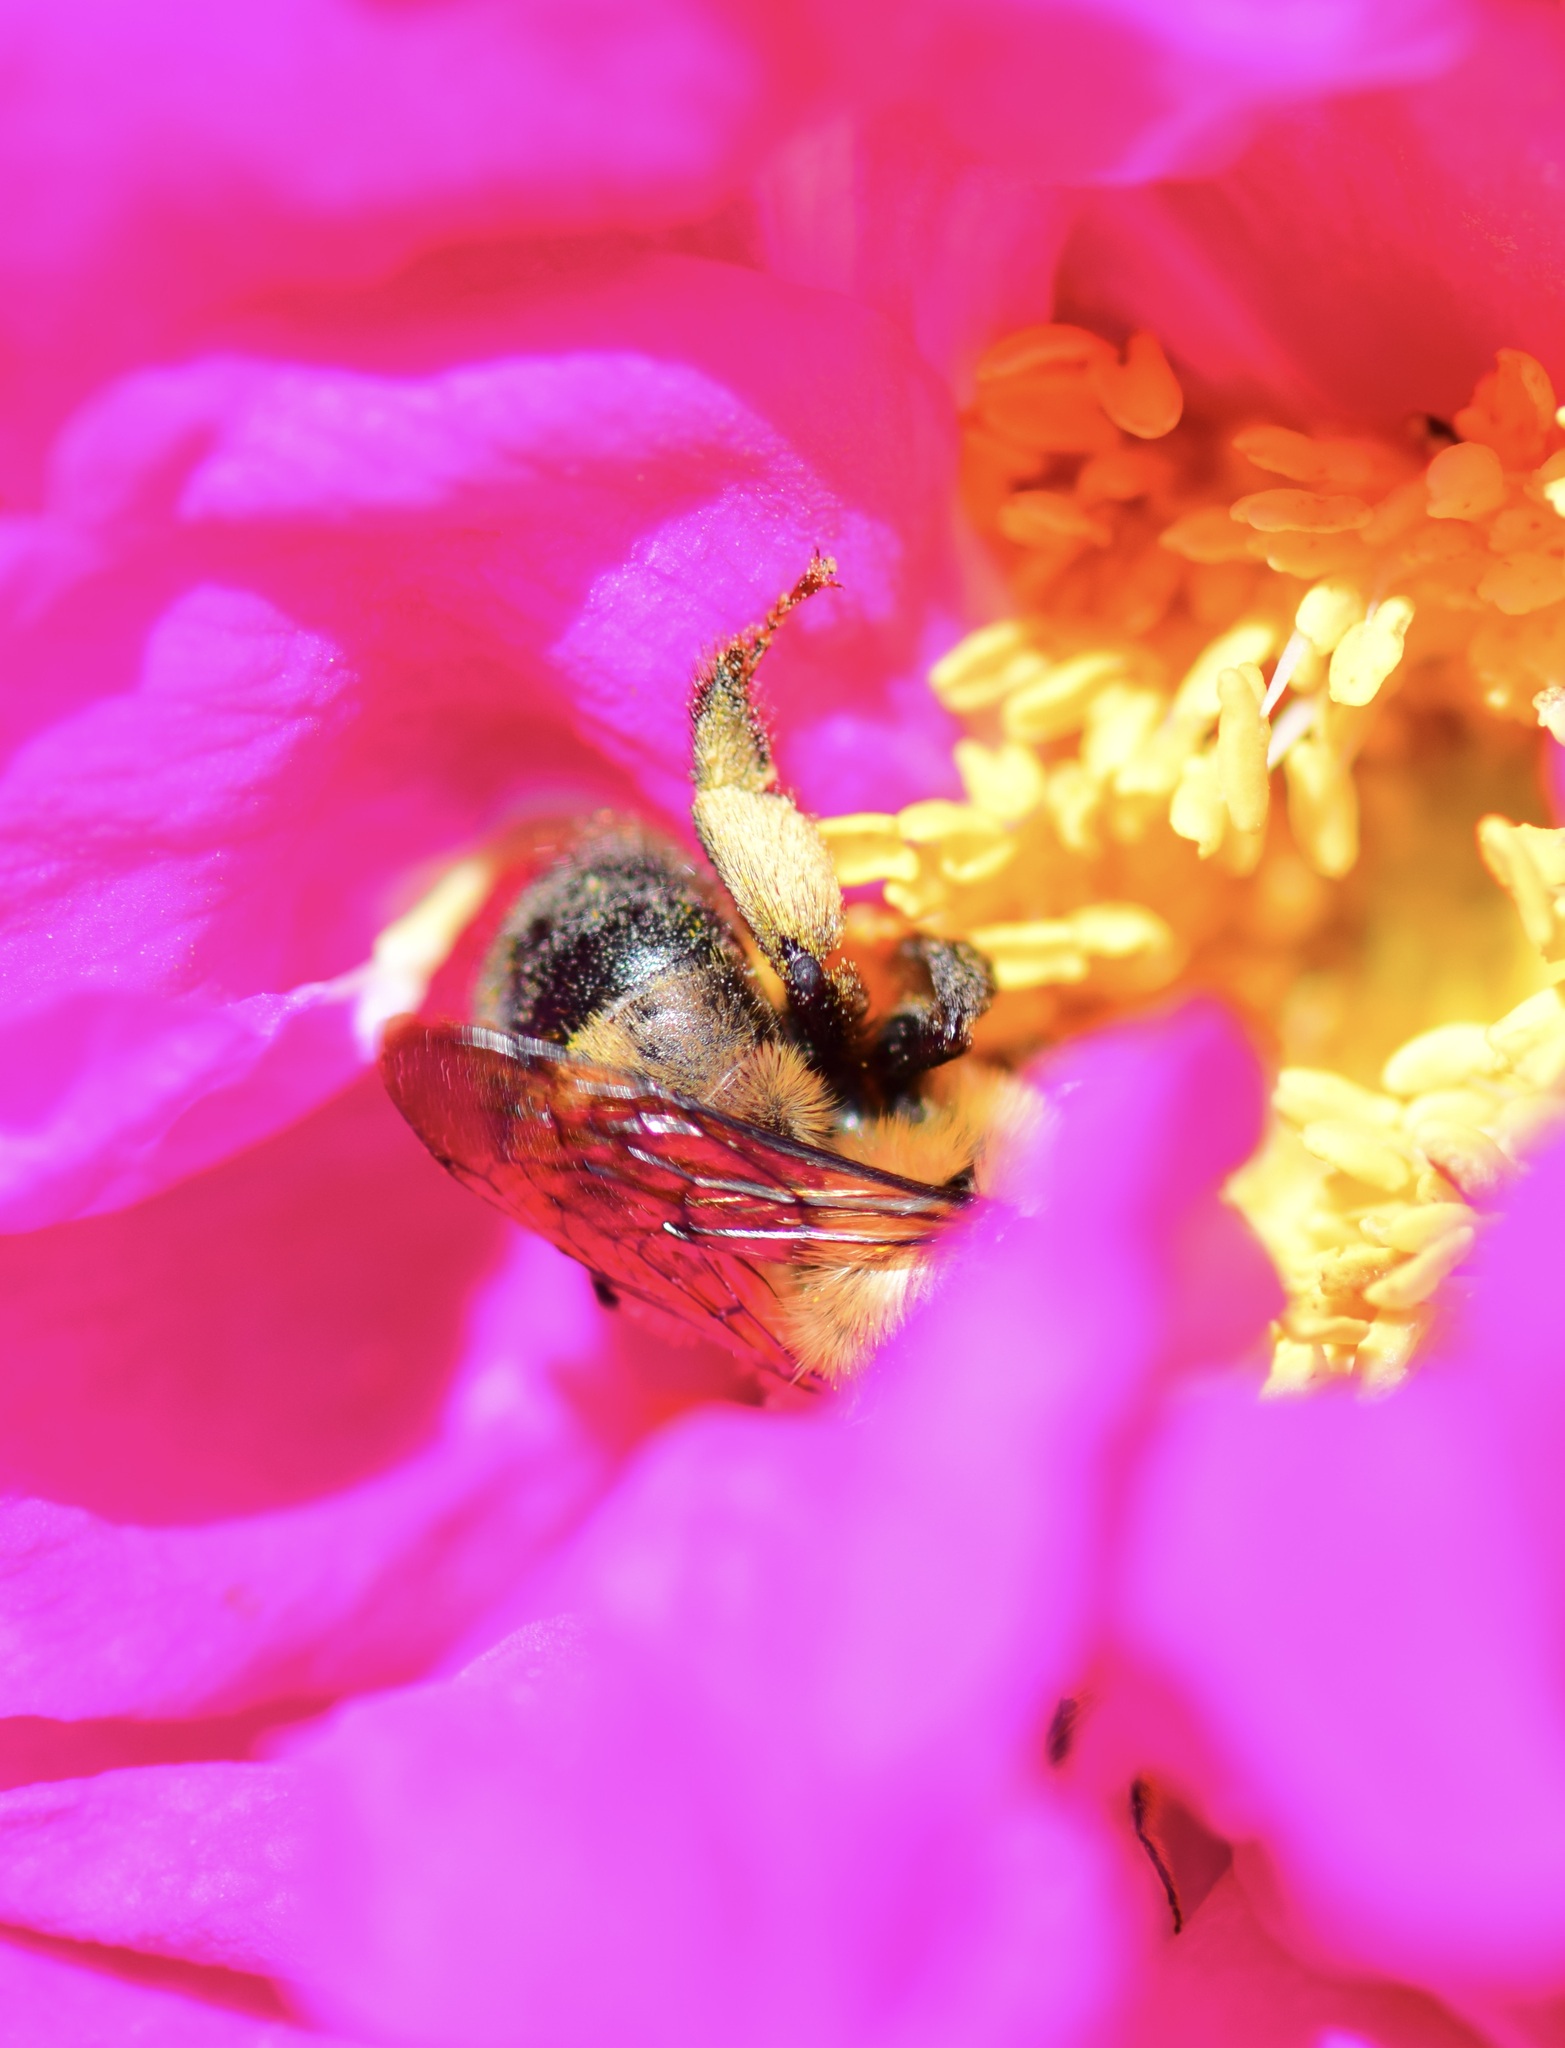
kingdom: Animalia
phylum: Arthropoda
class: Insecta
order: Hymenoptera
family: Apidae
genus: Anthophora
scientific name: Anthophora bomboides
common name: Bumble-bee-mimic digger bee
